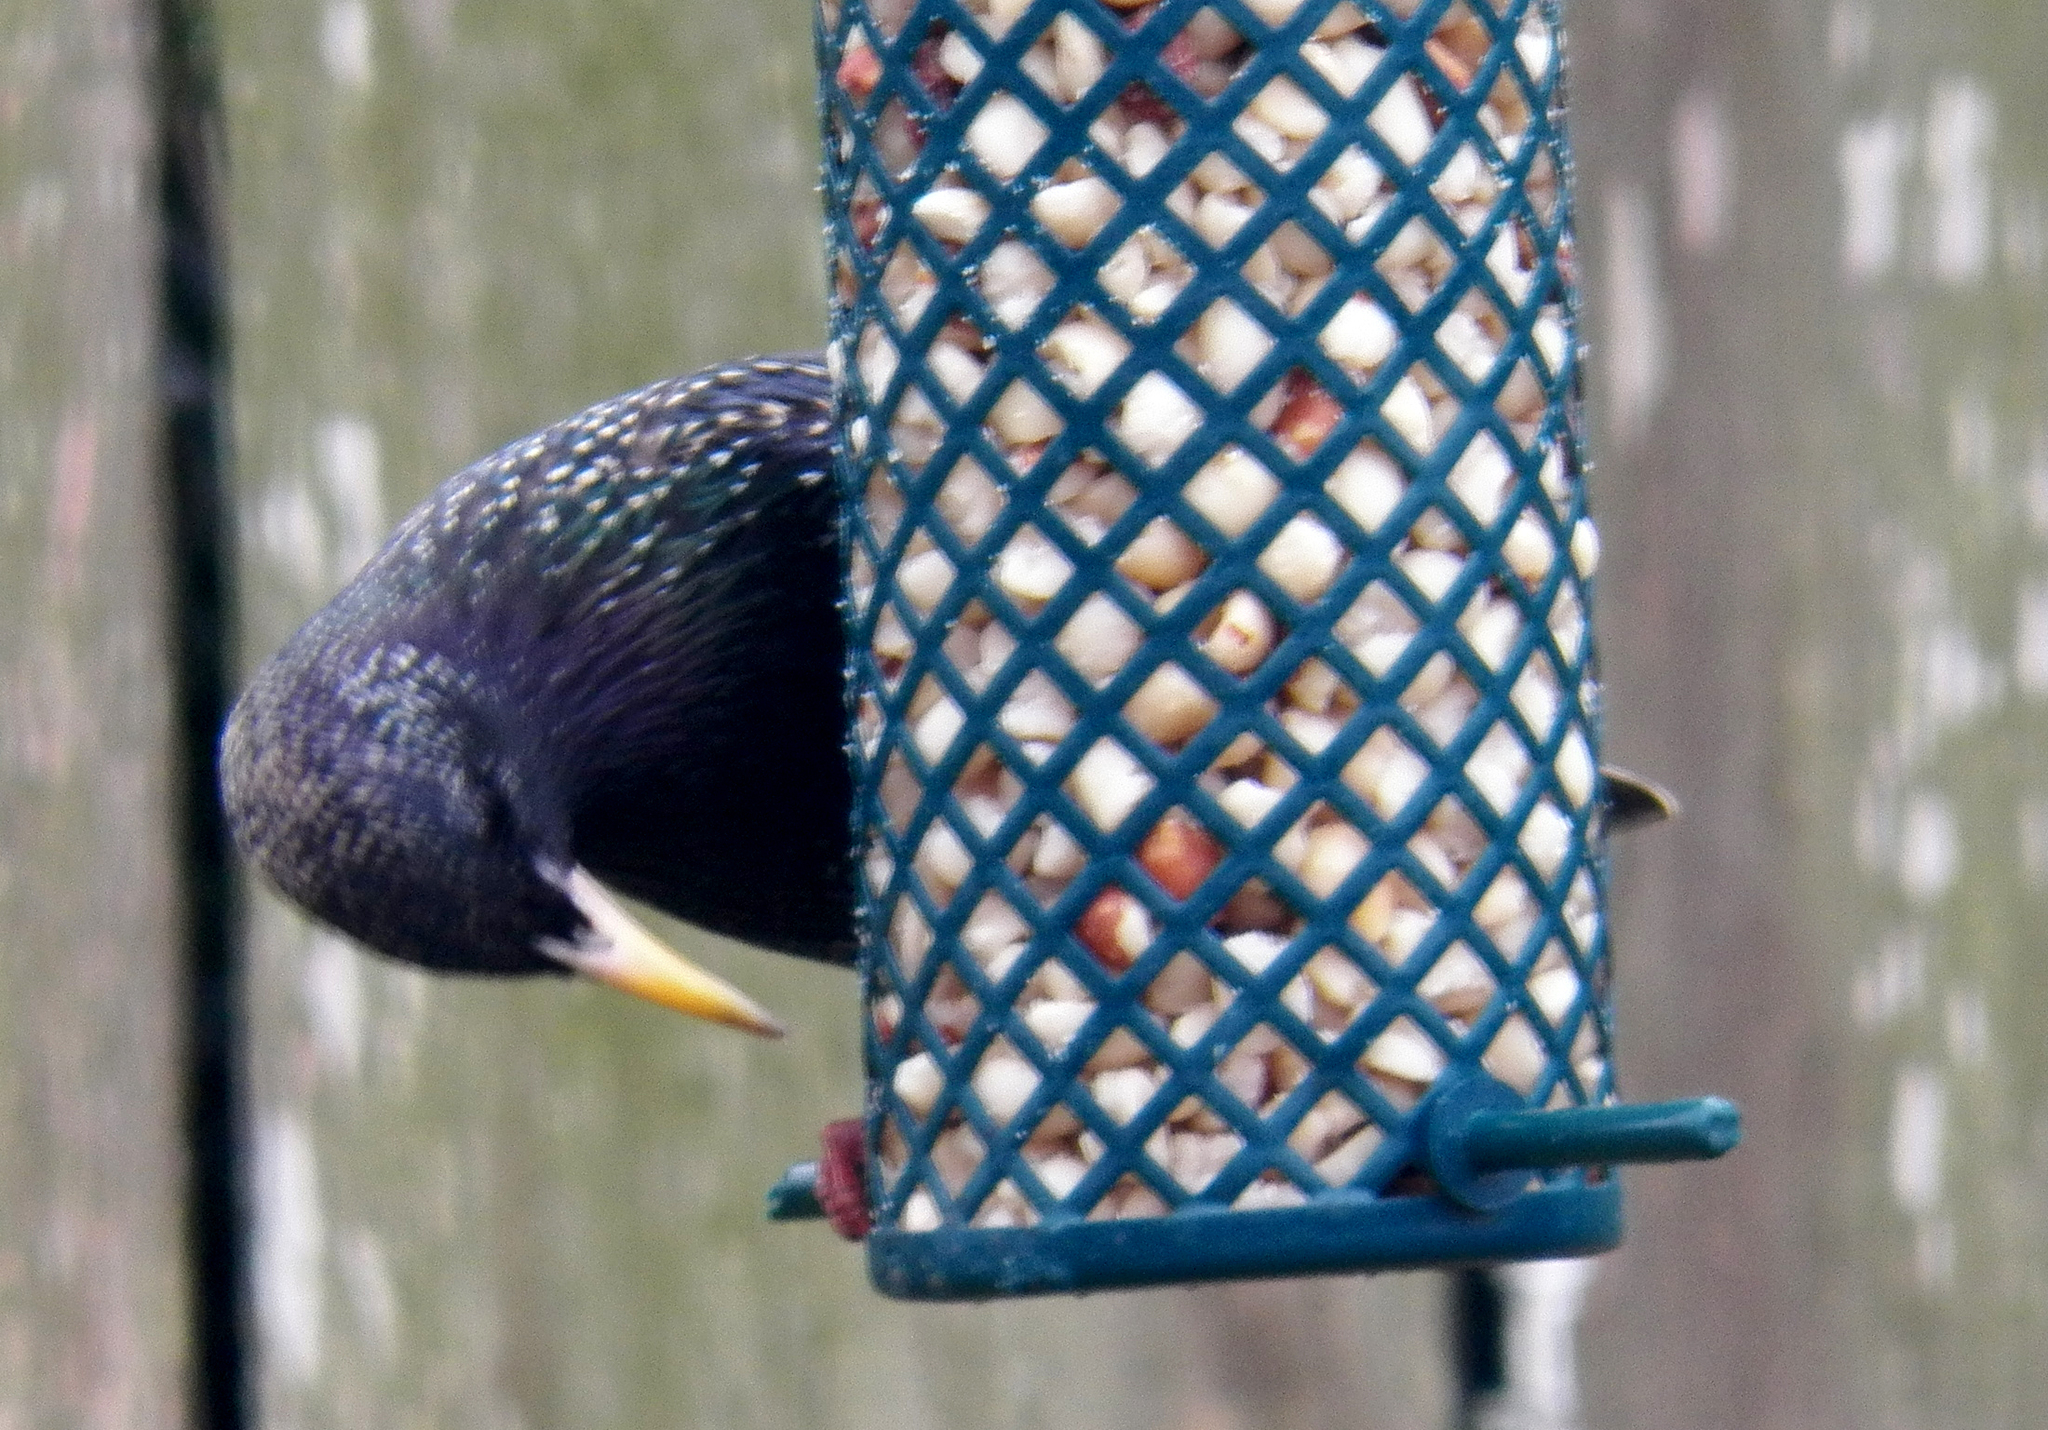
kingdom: Animalia
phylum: Chordata
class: Aves
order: Passeriformes
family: Sturnidae
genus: Sturnus
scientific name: Sturnus vulgaris
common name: Common starling
